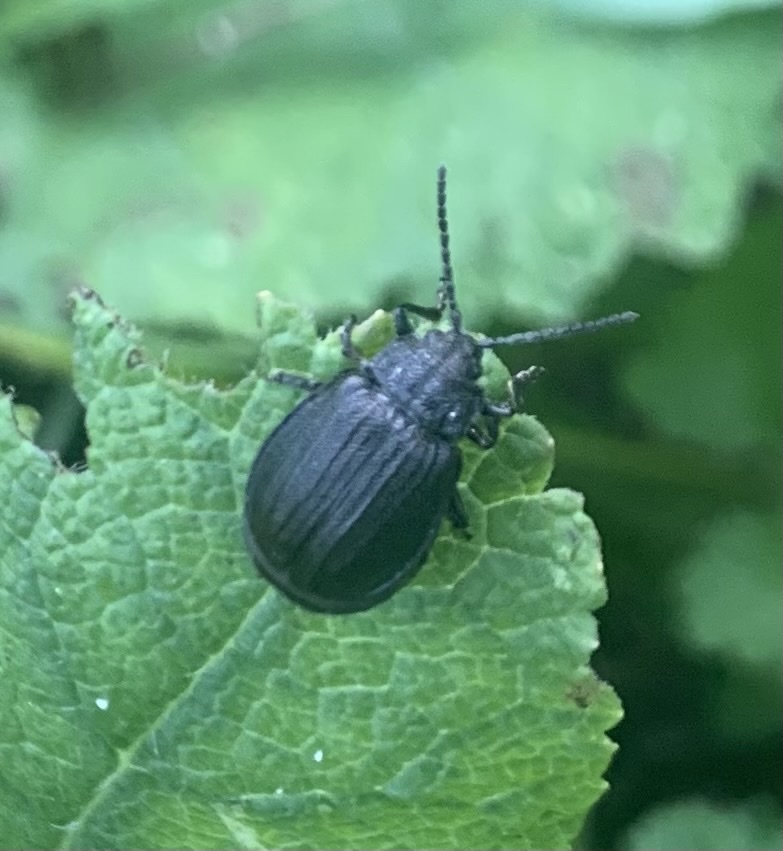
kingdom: Animalia
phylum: Arthropoda
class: Insecta
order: Coleoptera
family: Chrysomelidae
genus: Galeruca
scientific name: Galeruca tanaceti
